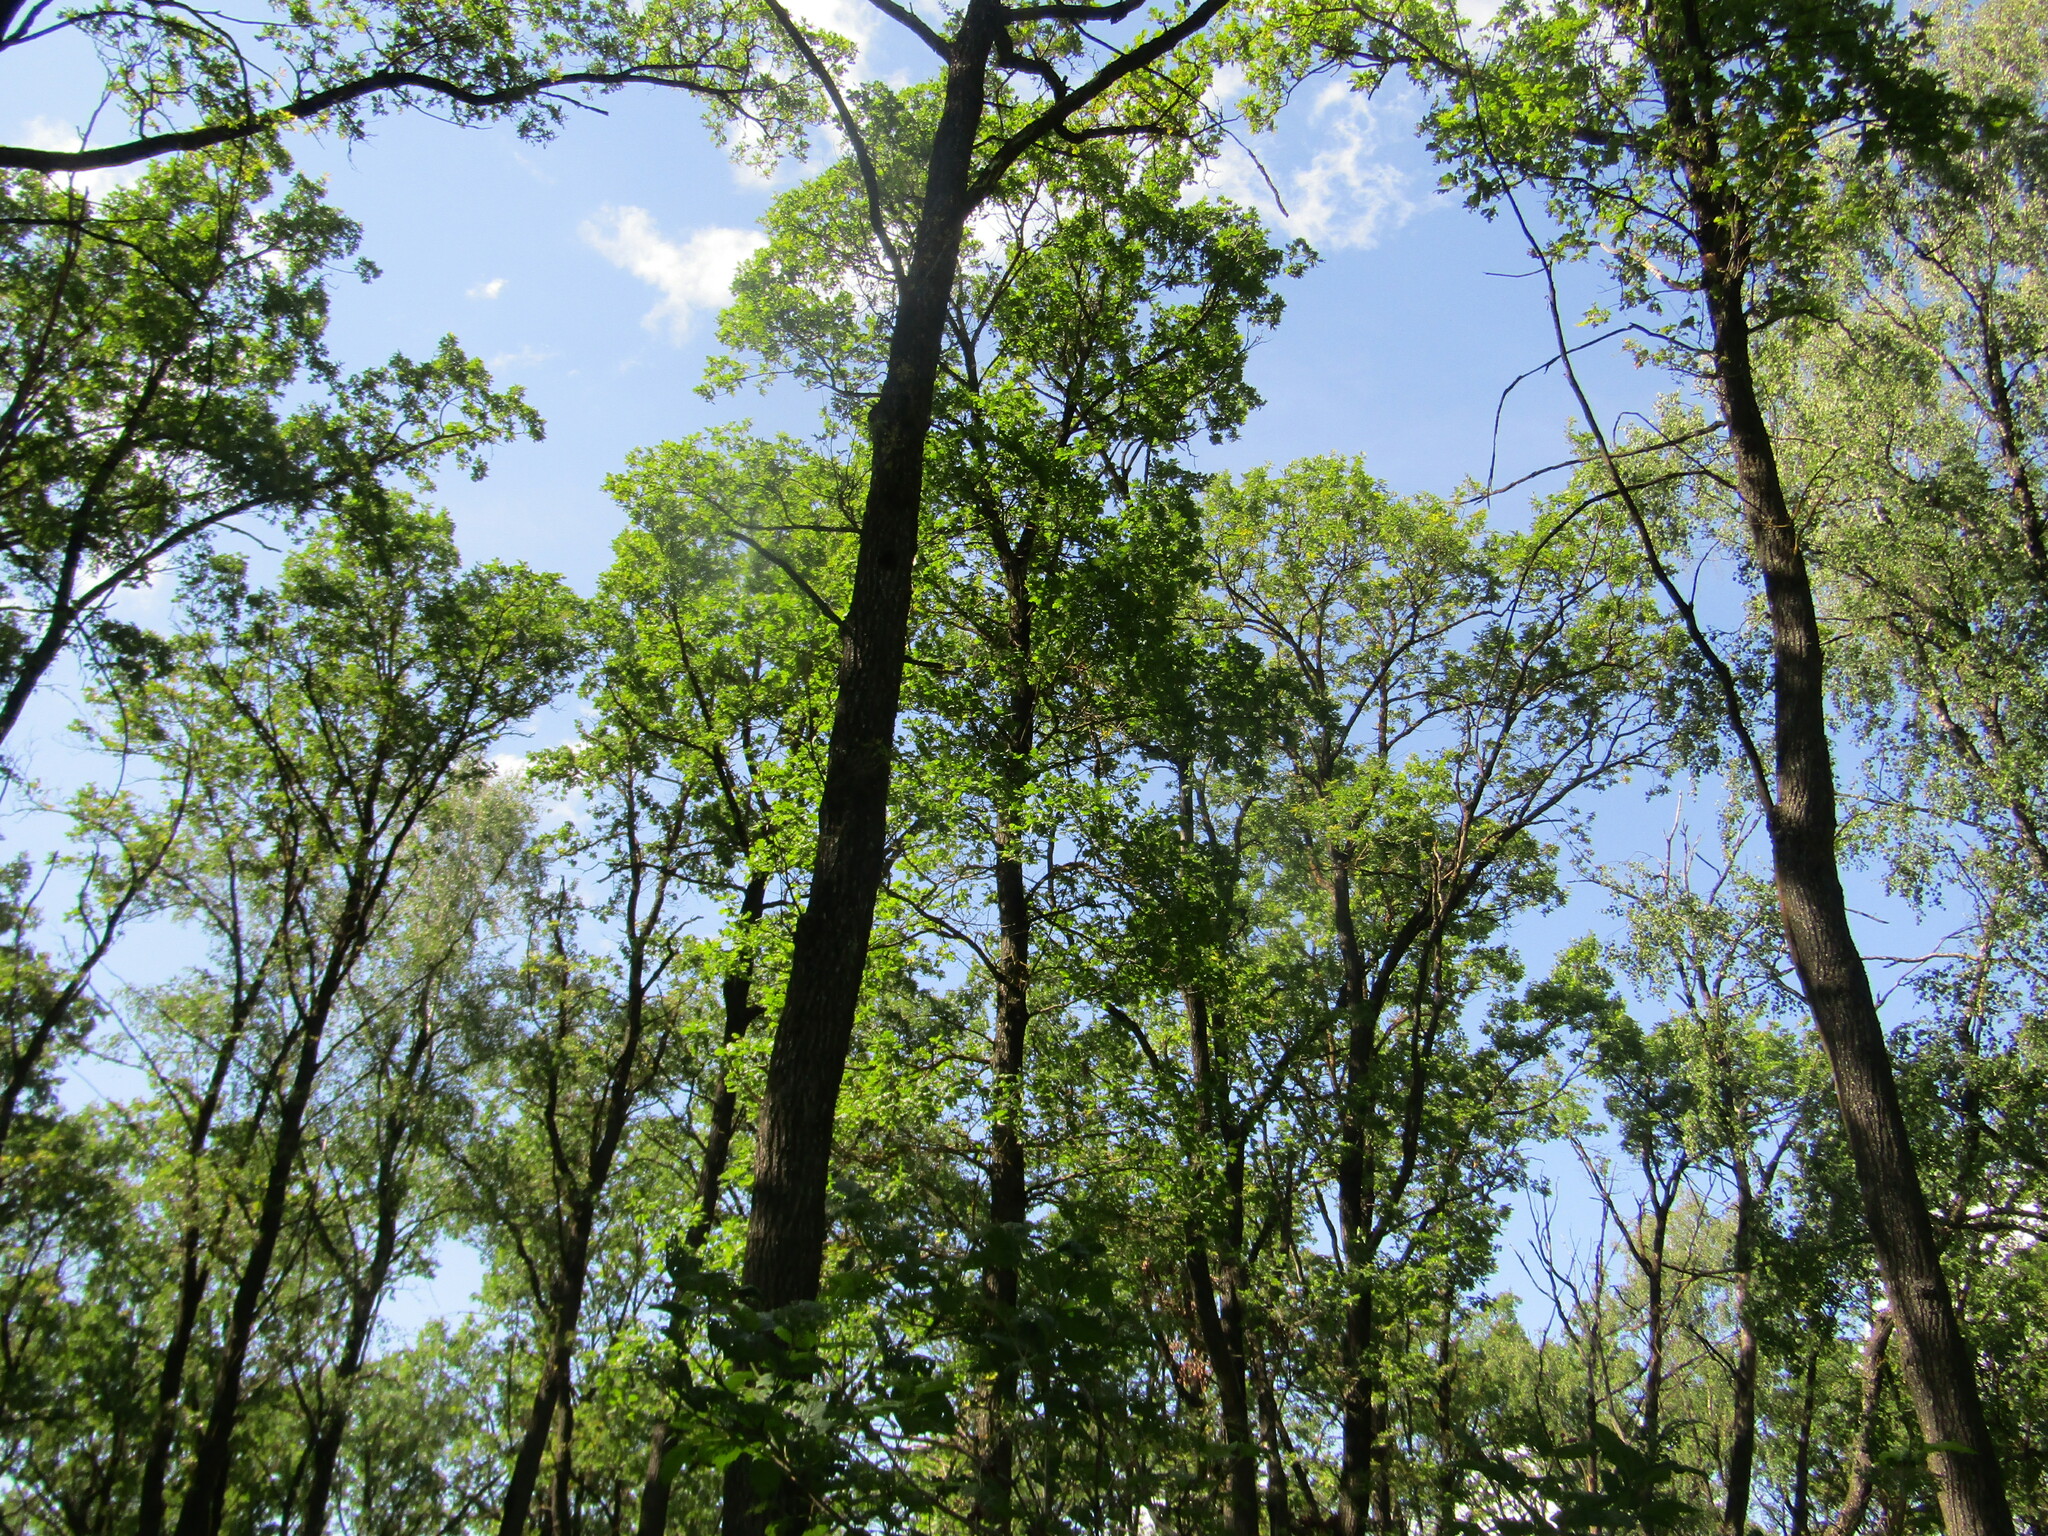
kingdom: Plantae
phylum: Tracheophyta
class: Magnoliopsida
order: Fagales
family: Fagaceae
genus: Quercus
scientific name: Quercus robur
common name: Pedunculate oak
